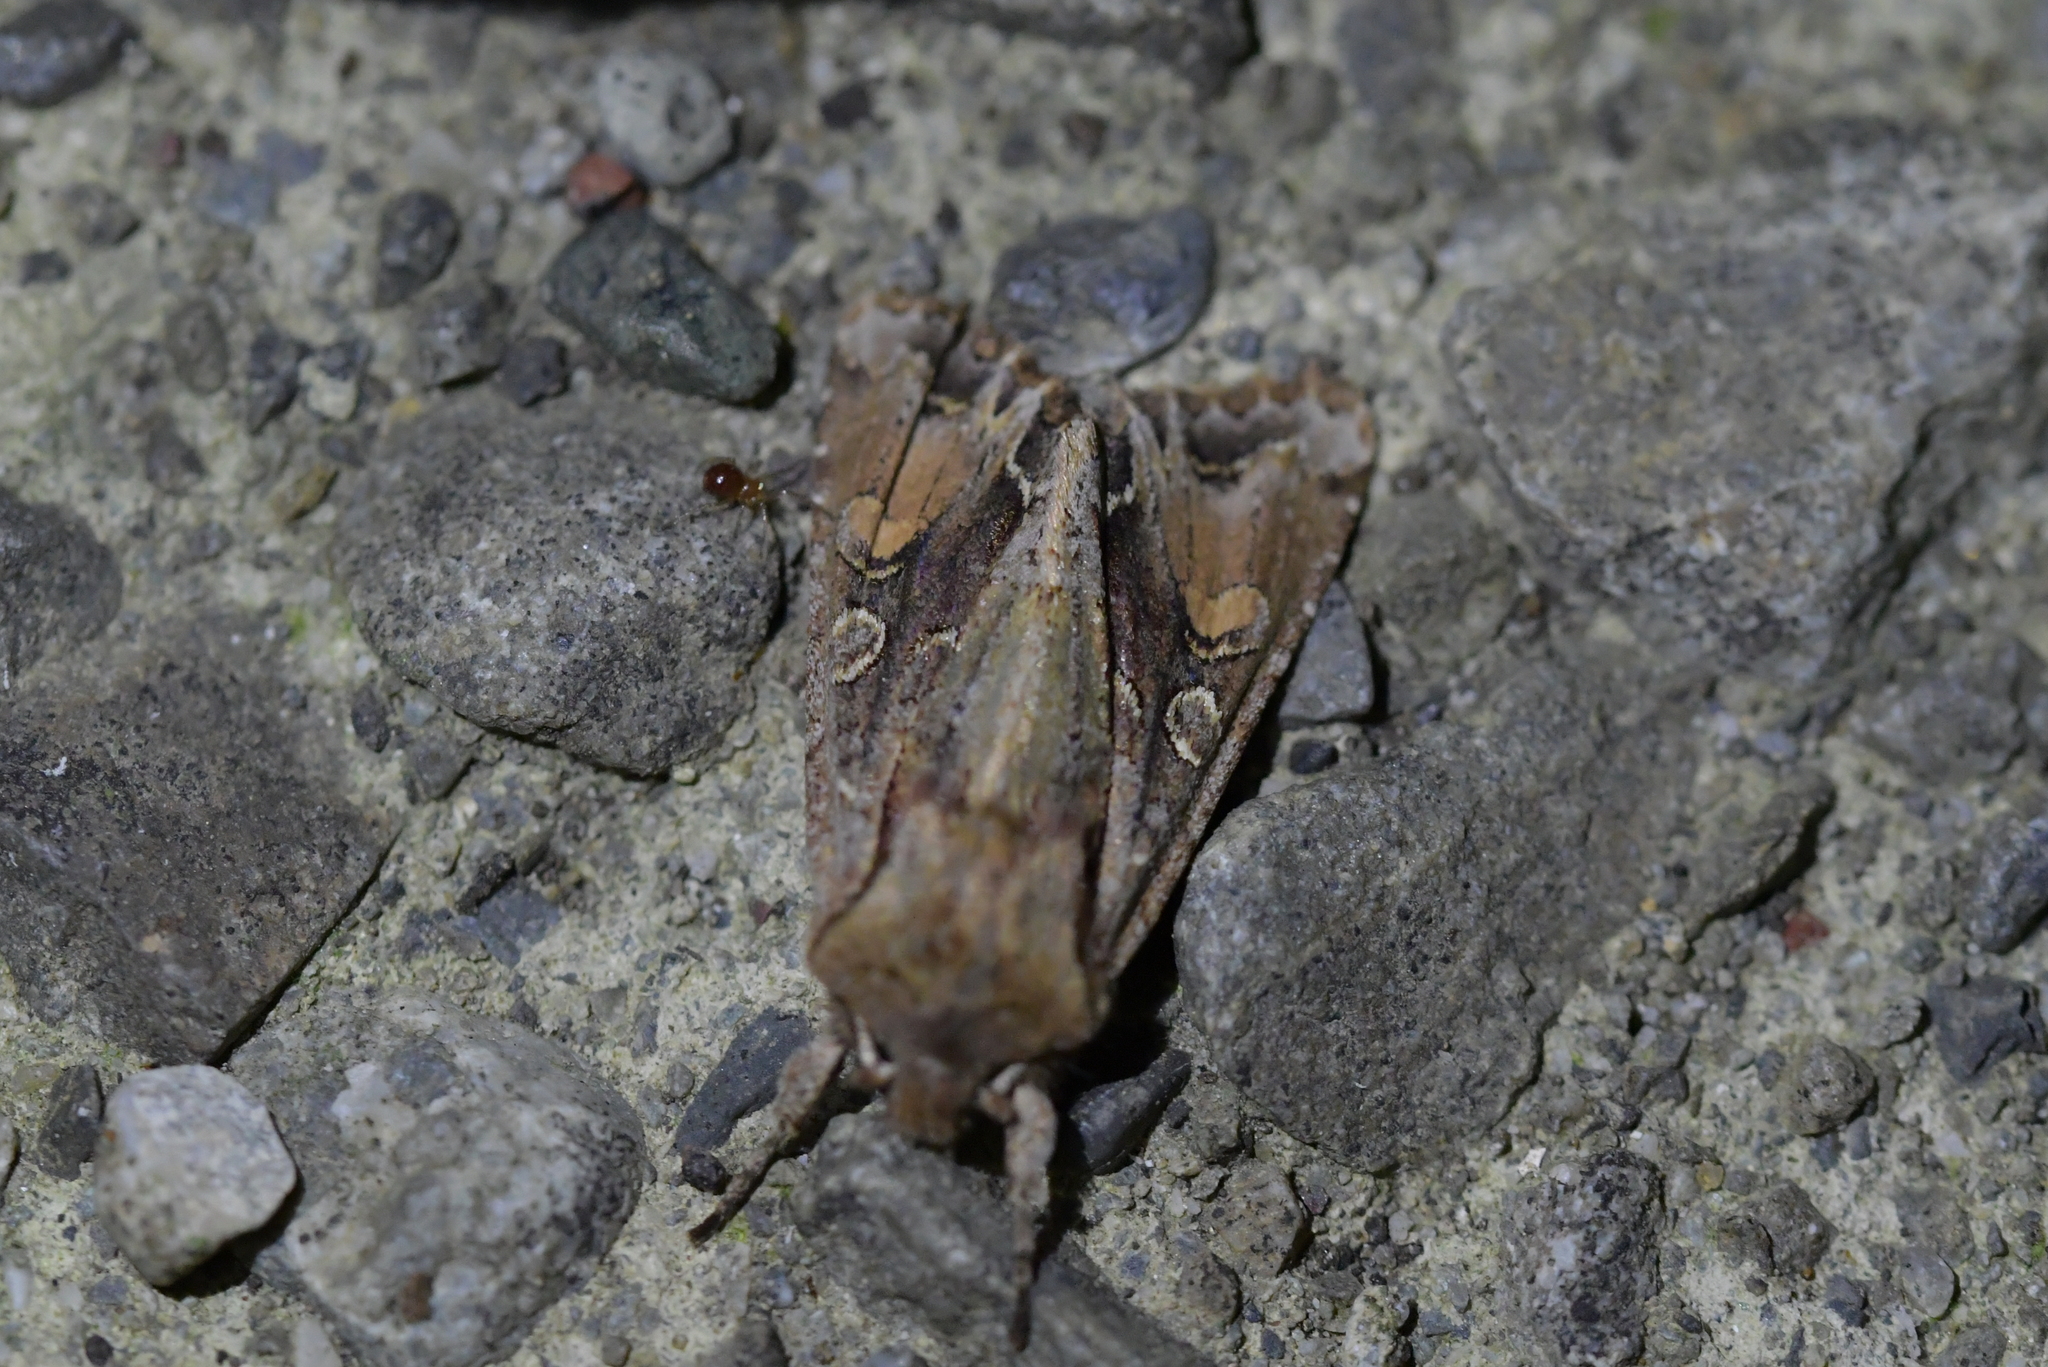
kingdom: Animalia
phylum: Arthropoda
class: Insecta
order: Lepidoptera
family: Noctuidae
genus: Ichneutica
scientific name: Ichneutica
